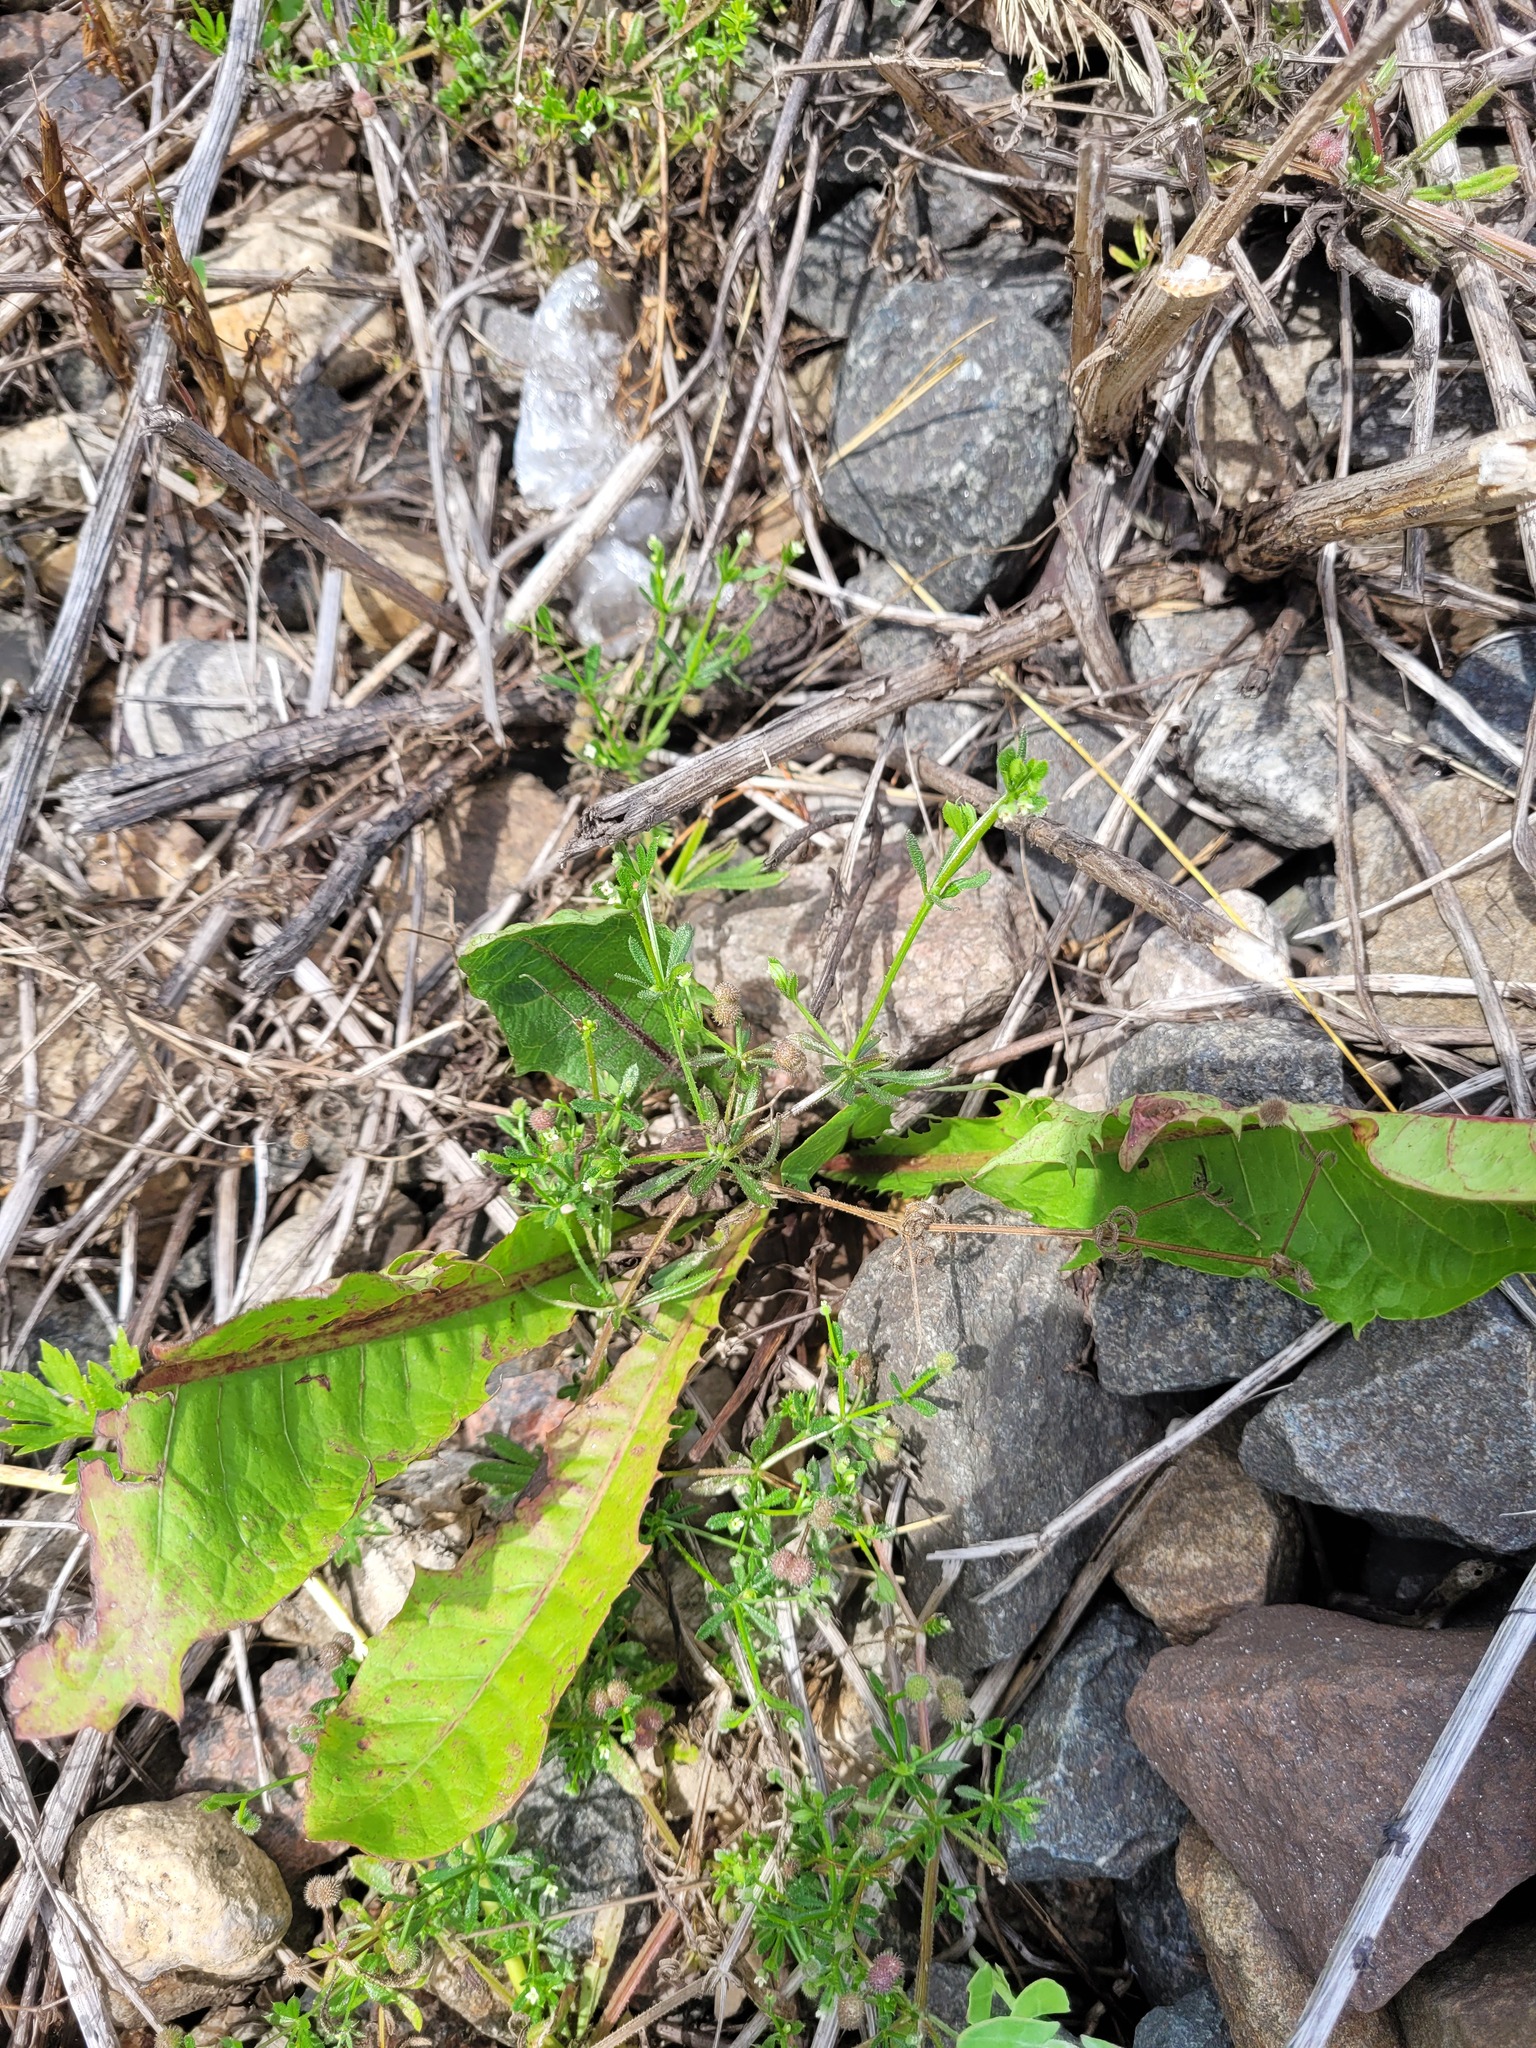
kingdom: Plantae
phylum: Tracheophyta
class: Magnoliopsida
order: Gentianales
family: Rubiaceae
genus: Galium
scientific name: Galium aparine
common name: Cleavers
